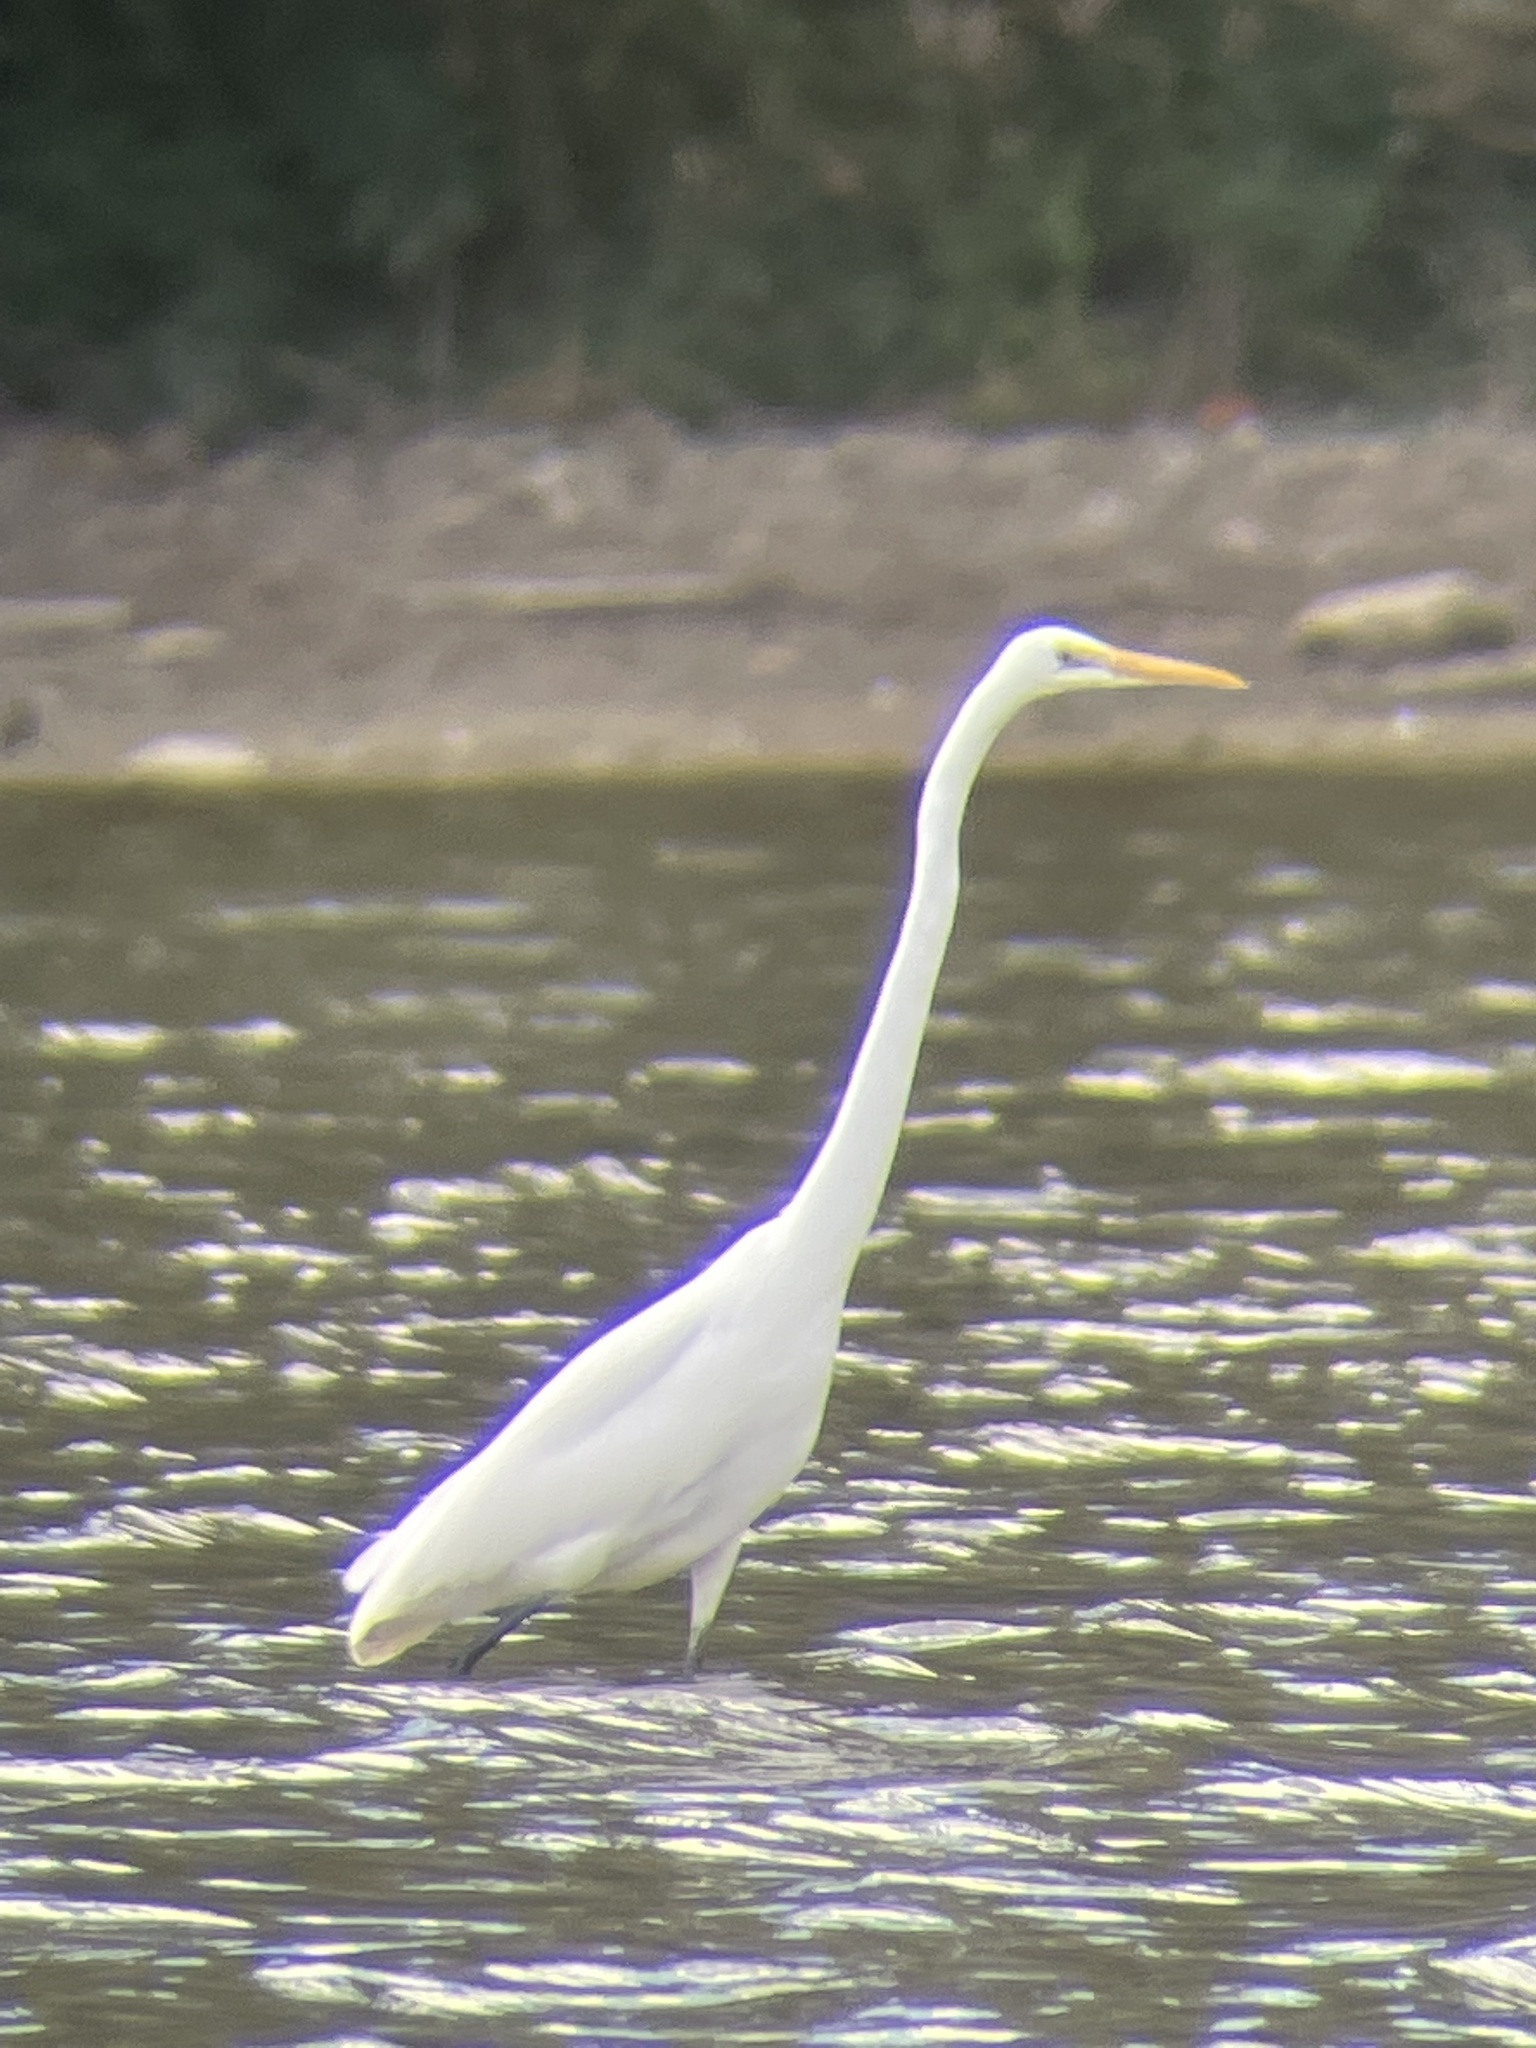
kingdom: Animalia
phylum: Chordata
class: Aves
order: Pelecaniformes
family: Ardeidae
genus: Ardea
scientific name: Ardea alba
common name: Great egret
